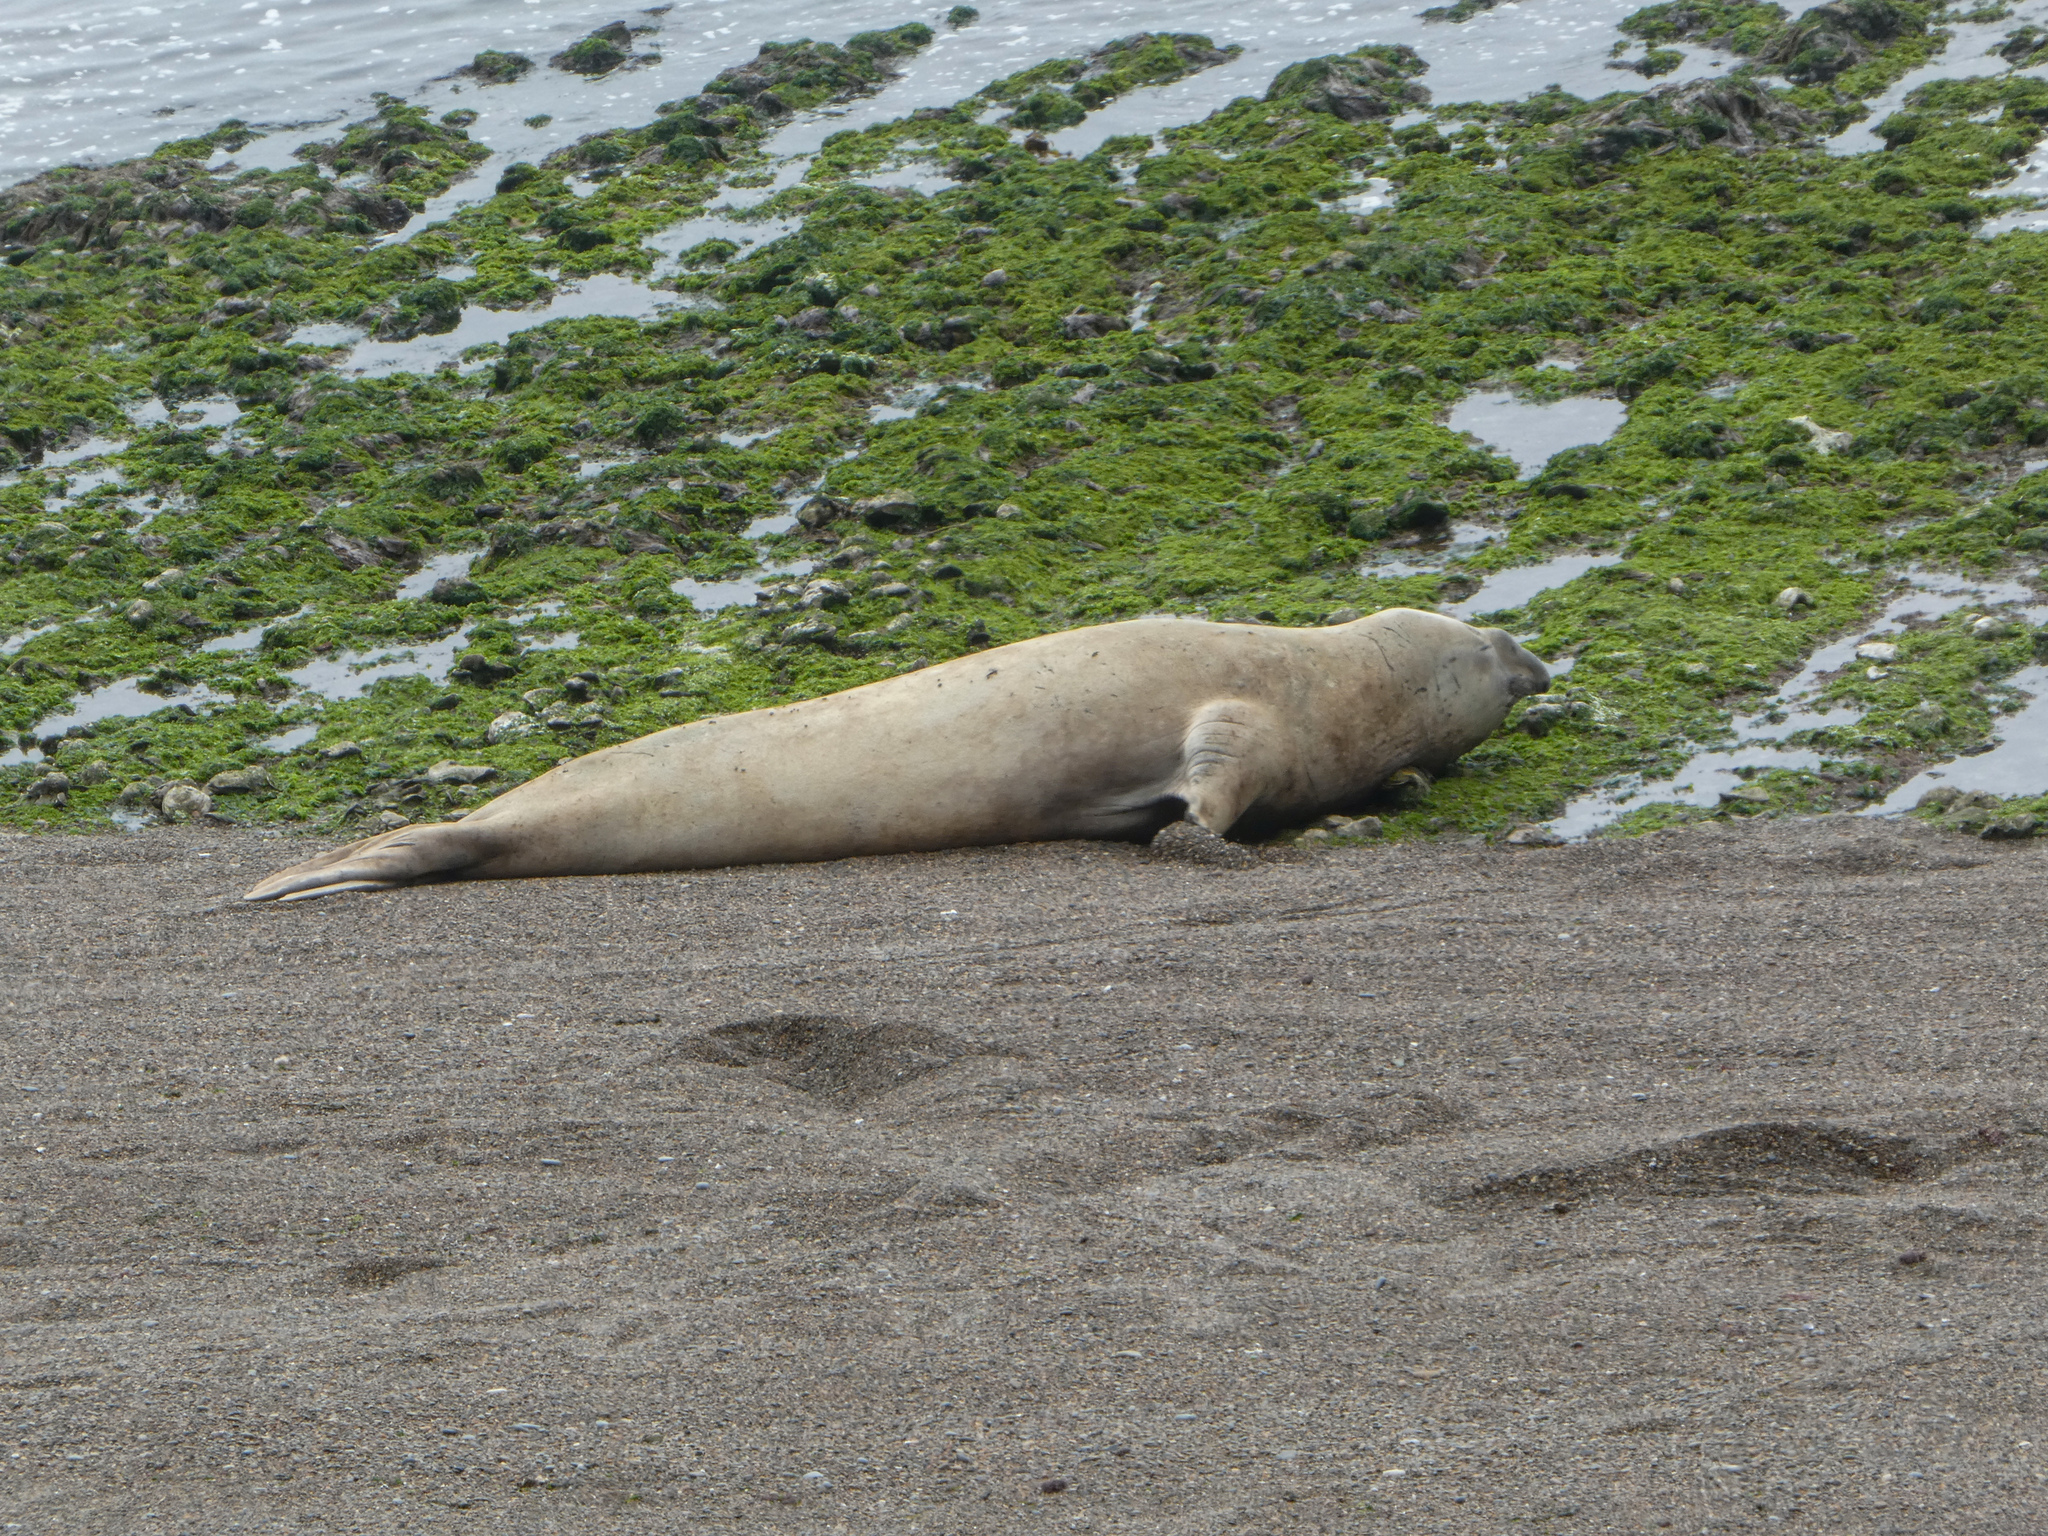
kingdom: Animalia
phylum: Chordata
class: Mammalia
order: Carnivora
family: Phocidae
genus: Mirounga
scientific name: Mirounga leonina
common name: Southern elephant seal
